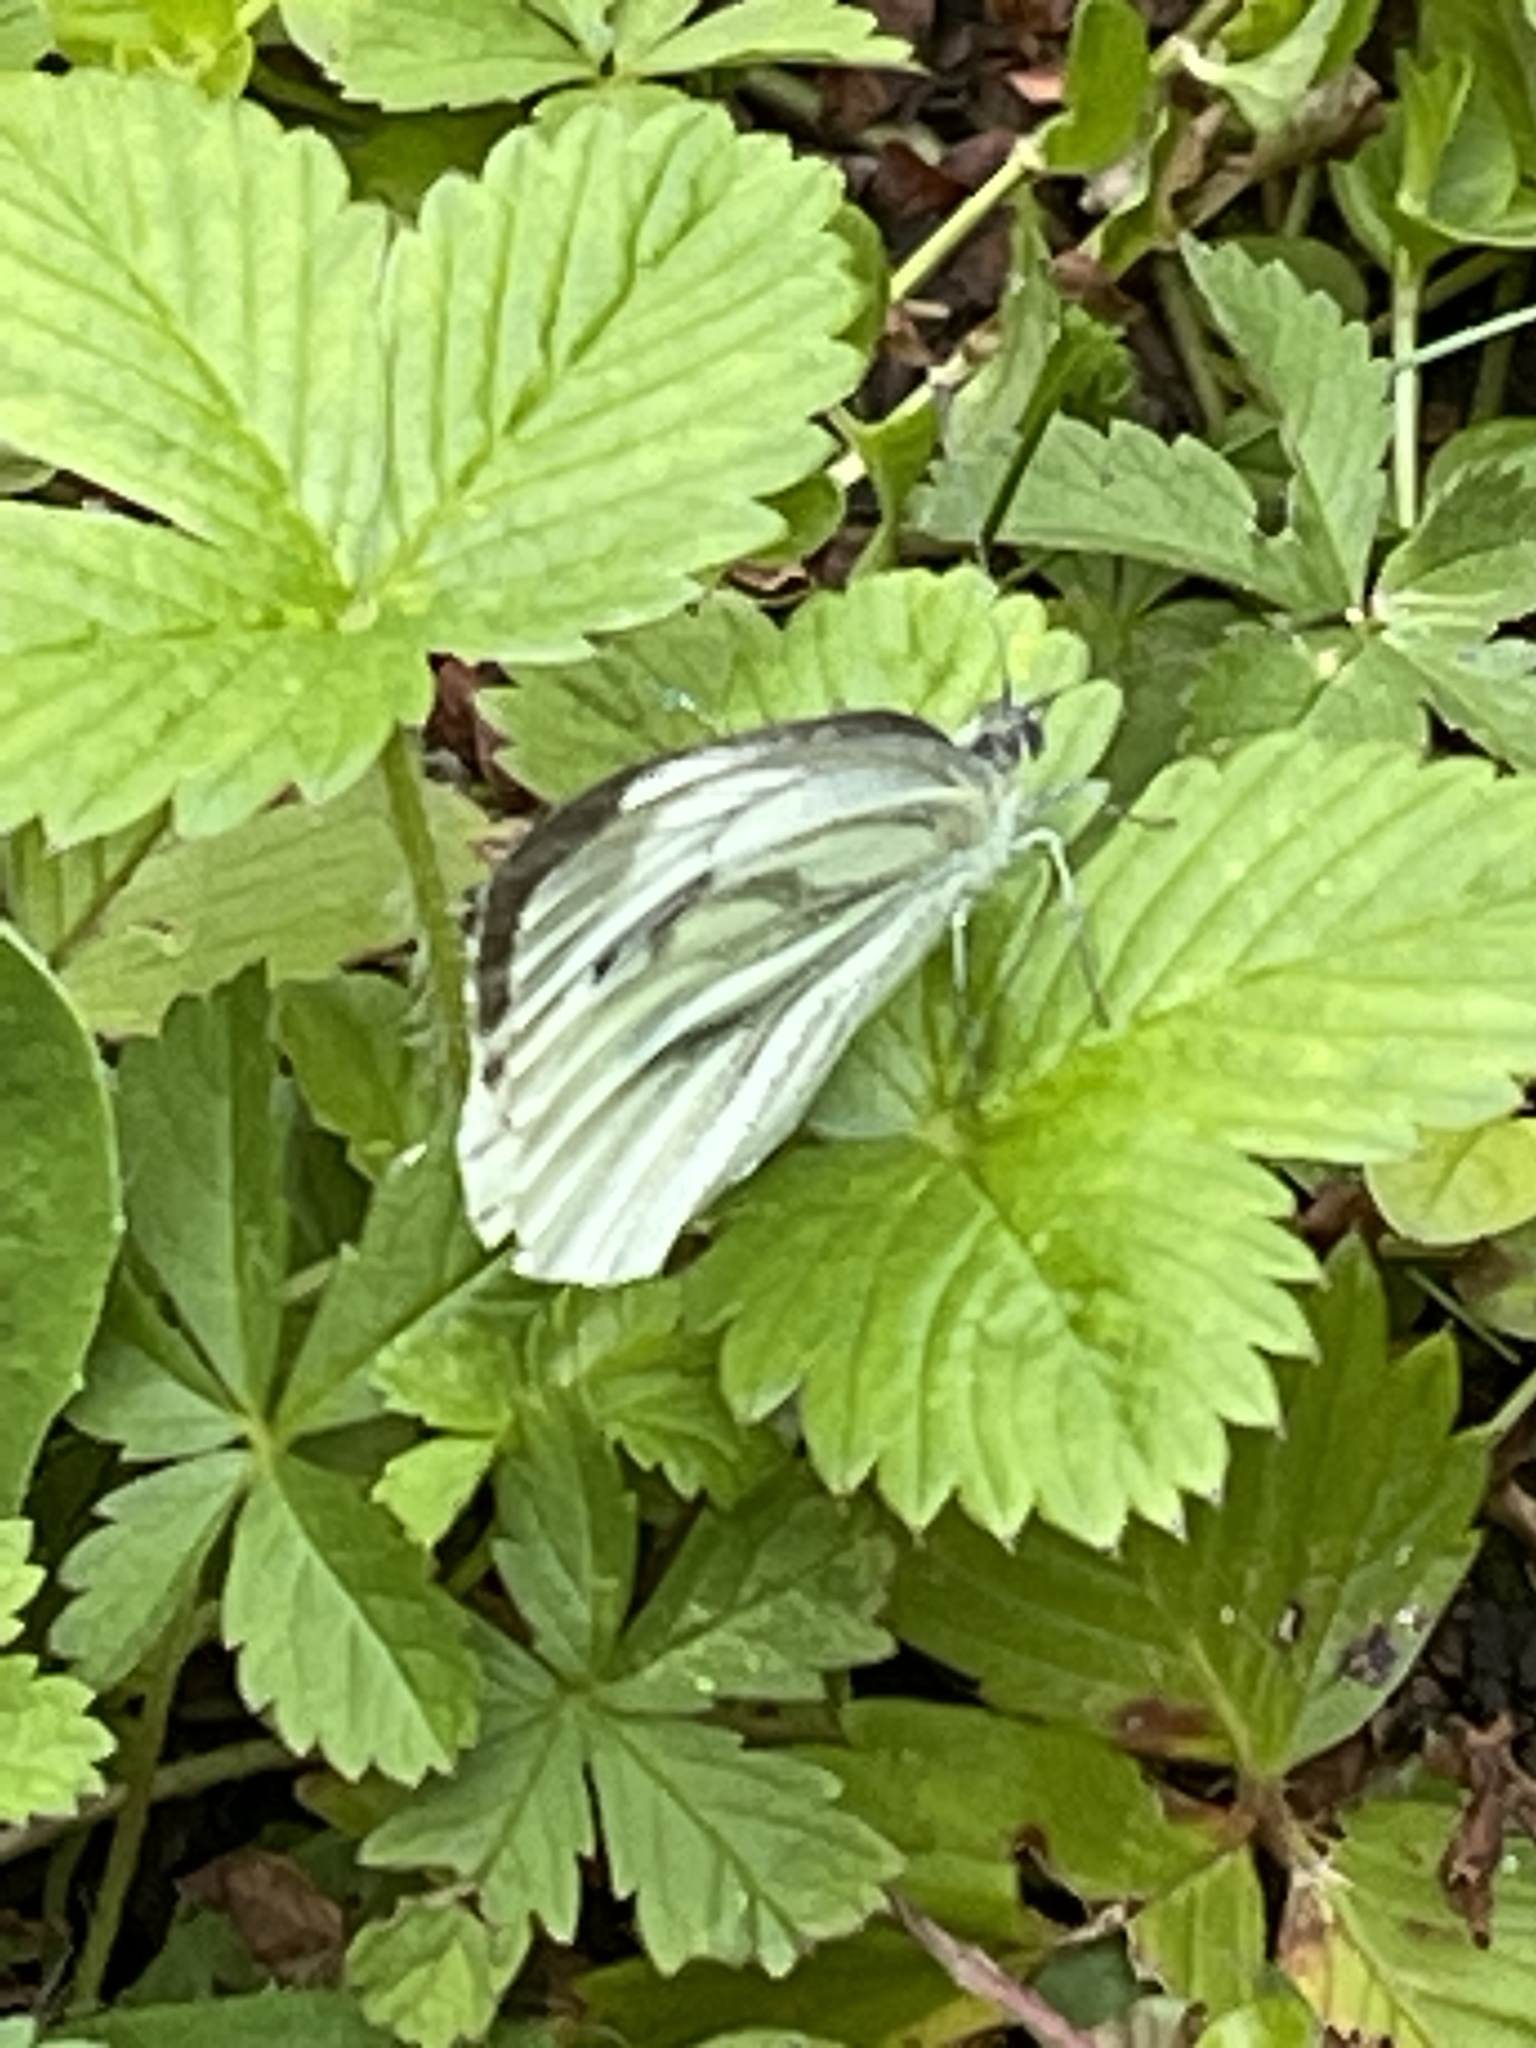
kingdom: Animalia
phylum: Arthropoda
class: Insecta
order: Lepidoptera
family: Pieridae
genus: Pieris
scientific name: Pieris napi
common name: Green-veined white
